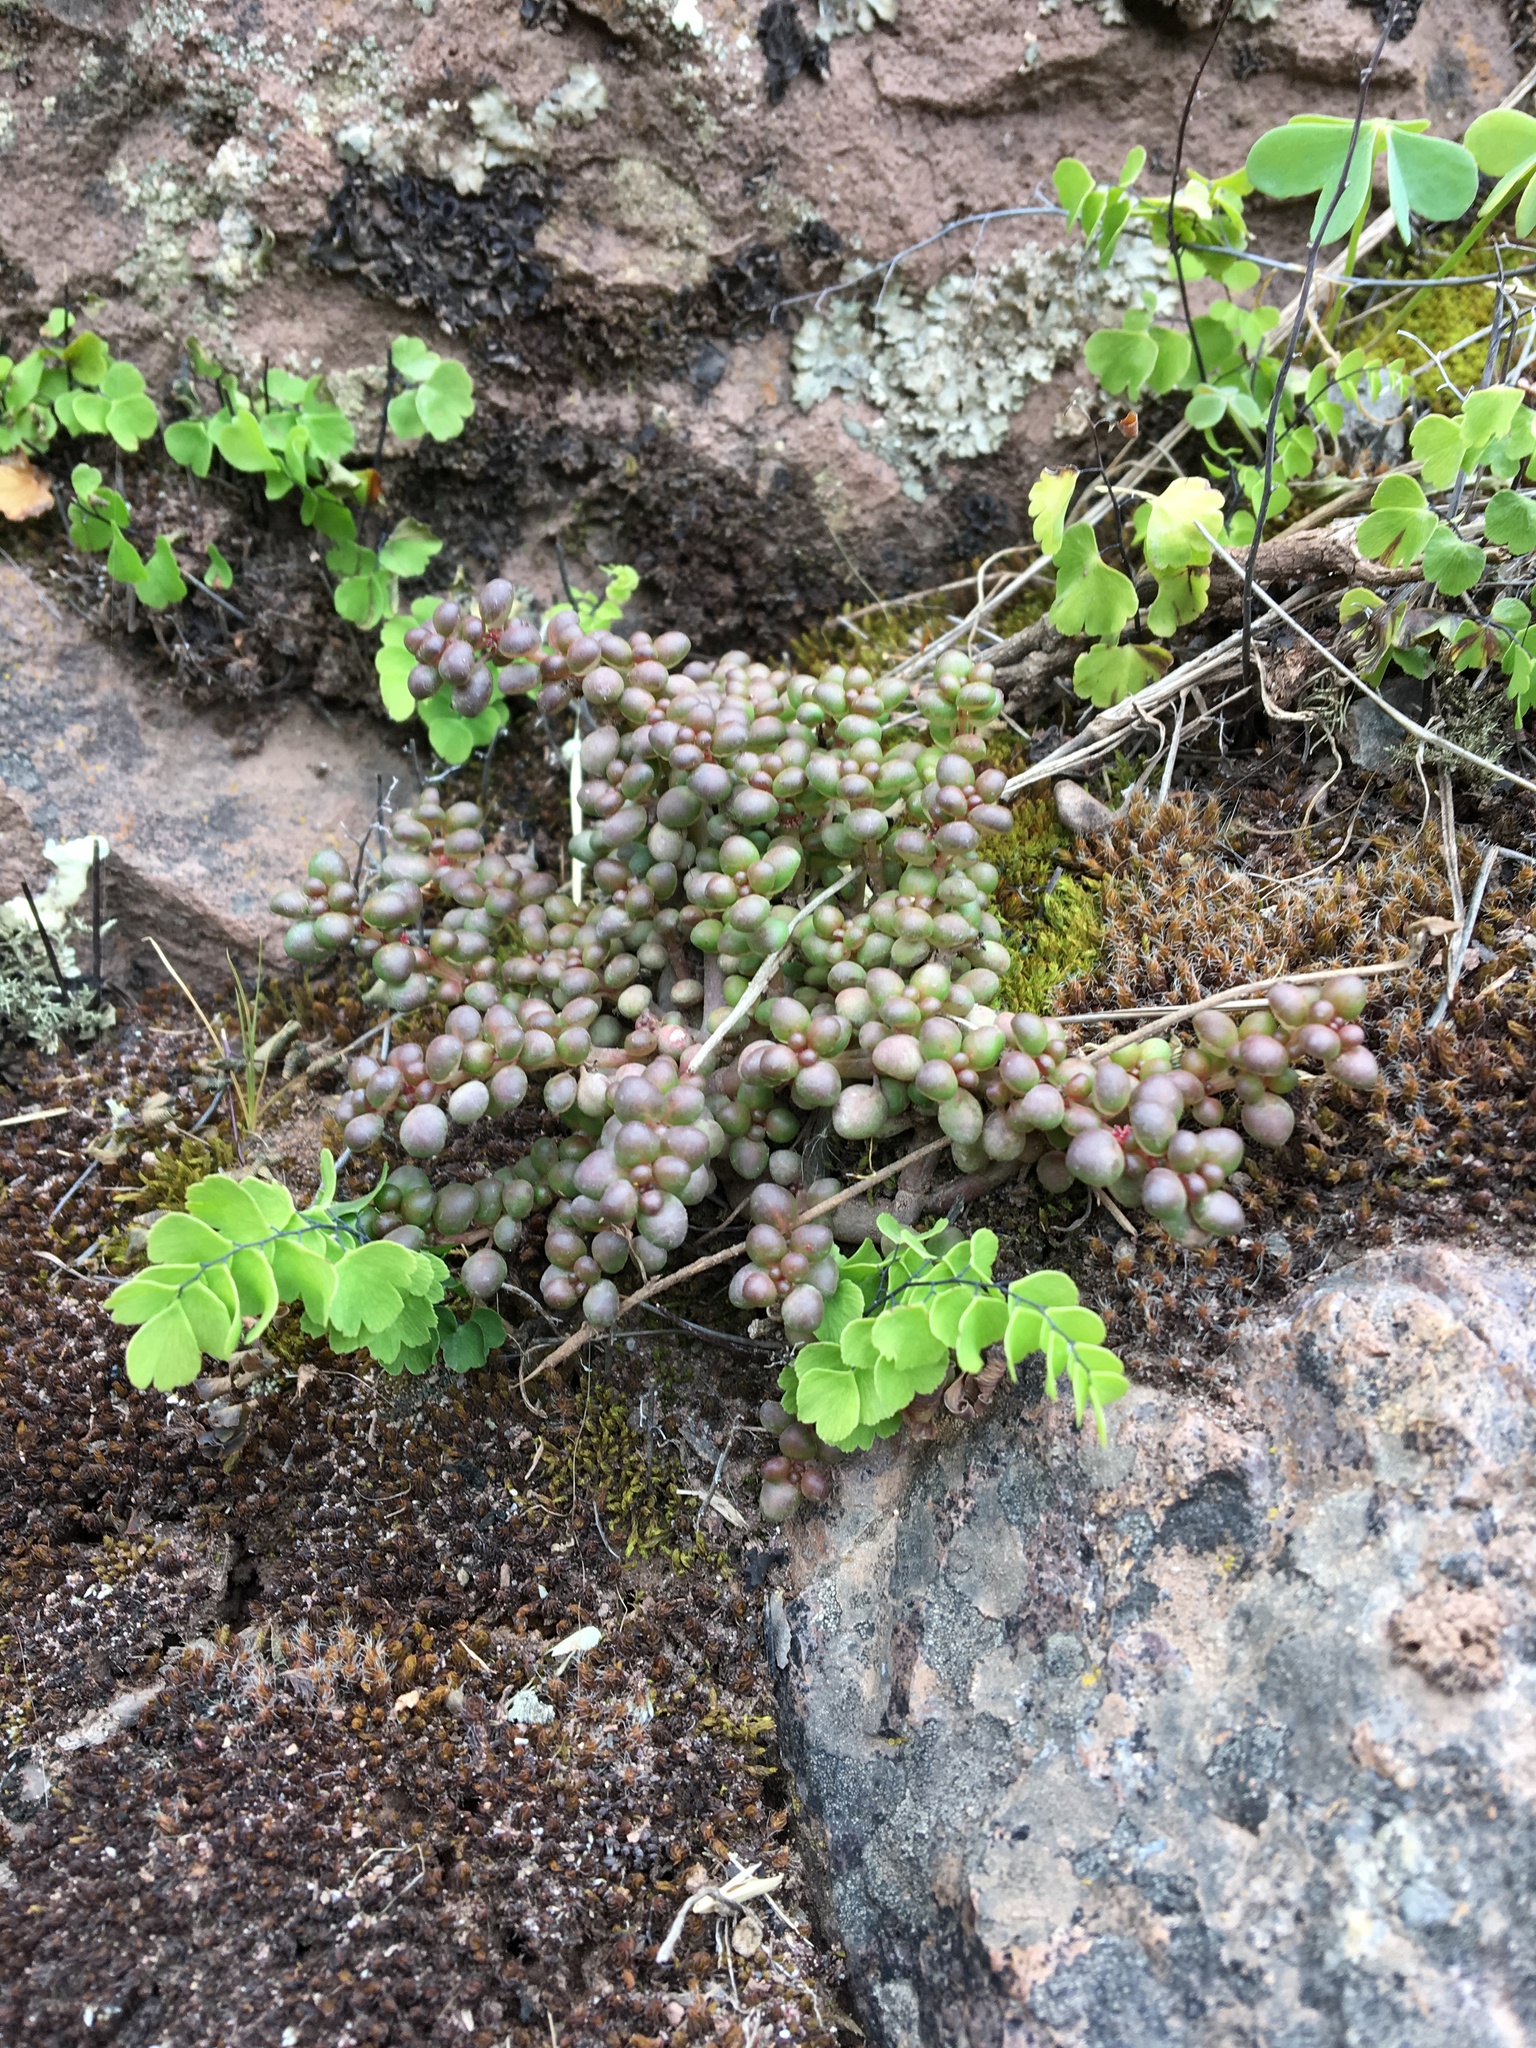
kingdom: Plantae
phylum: Tracheophyta
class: Magnoliopsida
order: Rosales
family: Urticaceae
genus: Pilea
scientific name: Pilea serpyllacea
